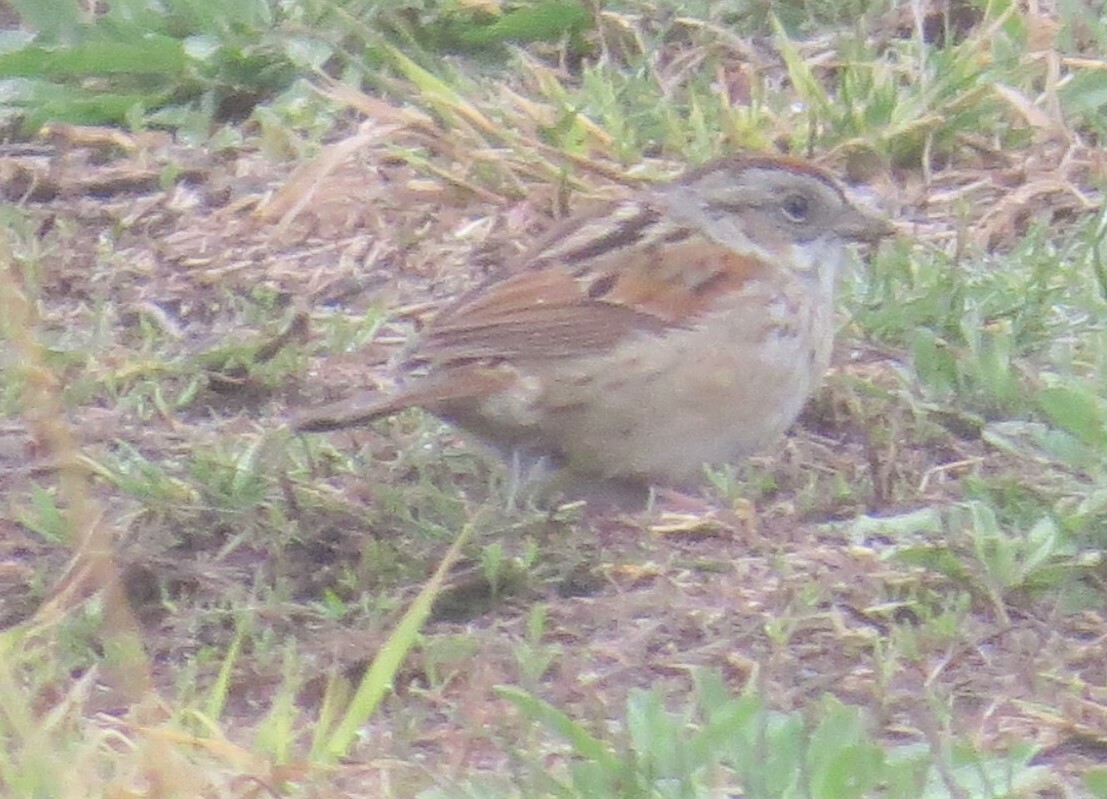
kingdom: Animalia
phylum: Chordata
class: Aves
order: Passeriformes
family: Passerellidae
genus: Melospiza
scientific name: Melospiza georgiana
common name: Swamp sparrow
